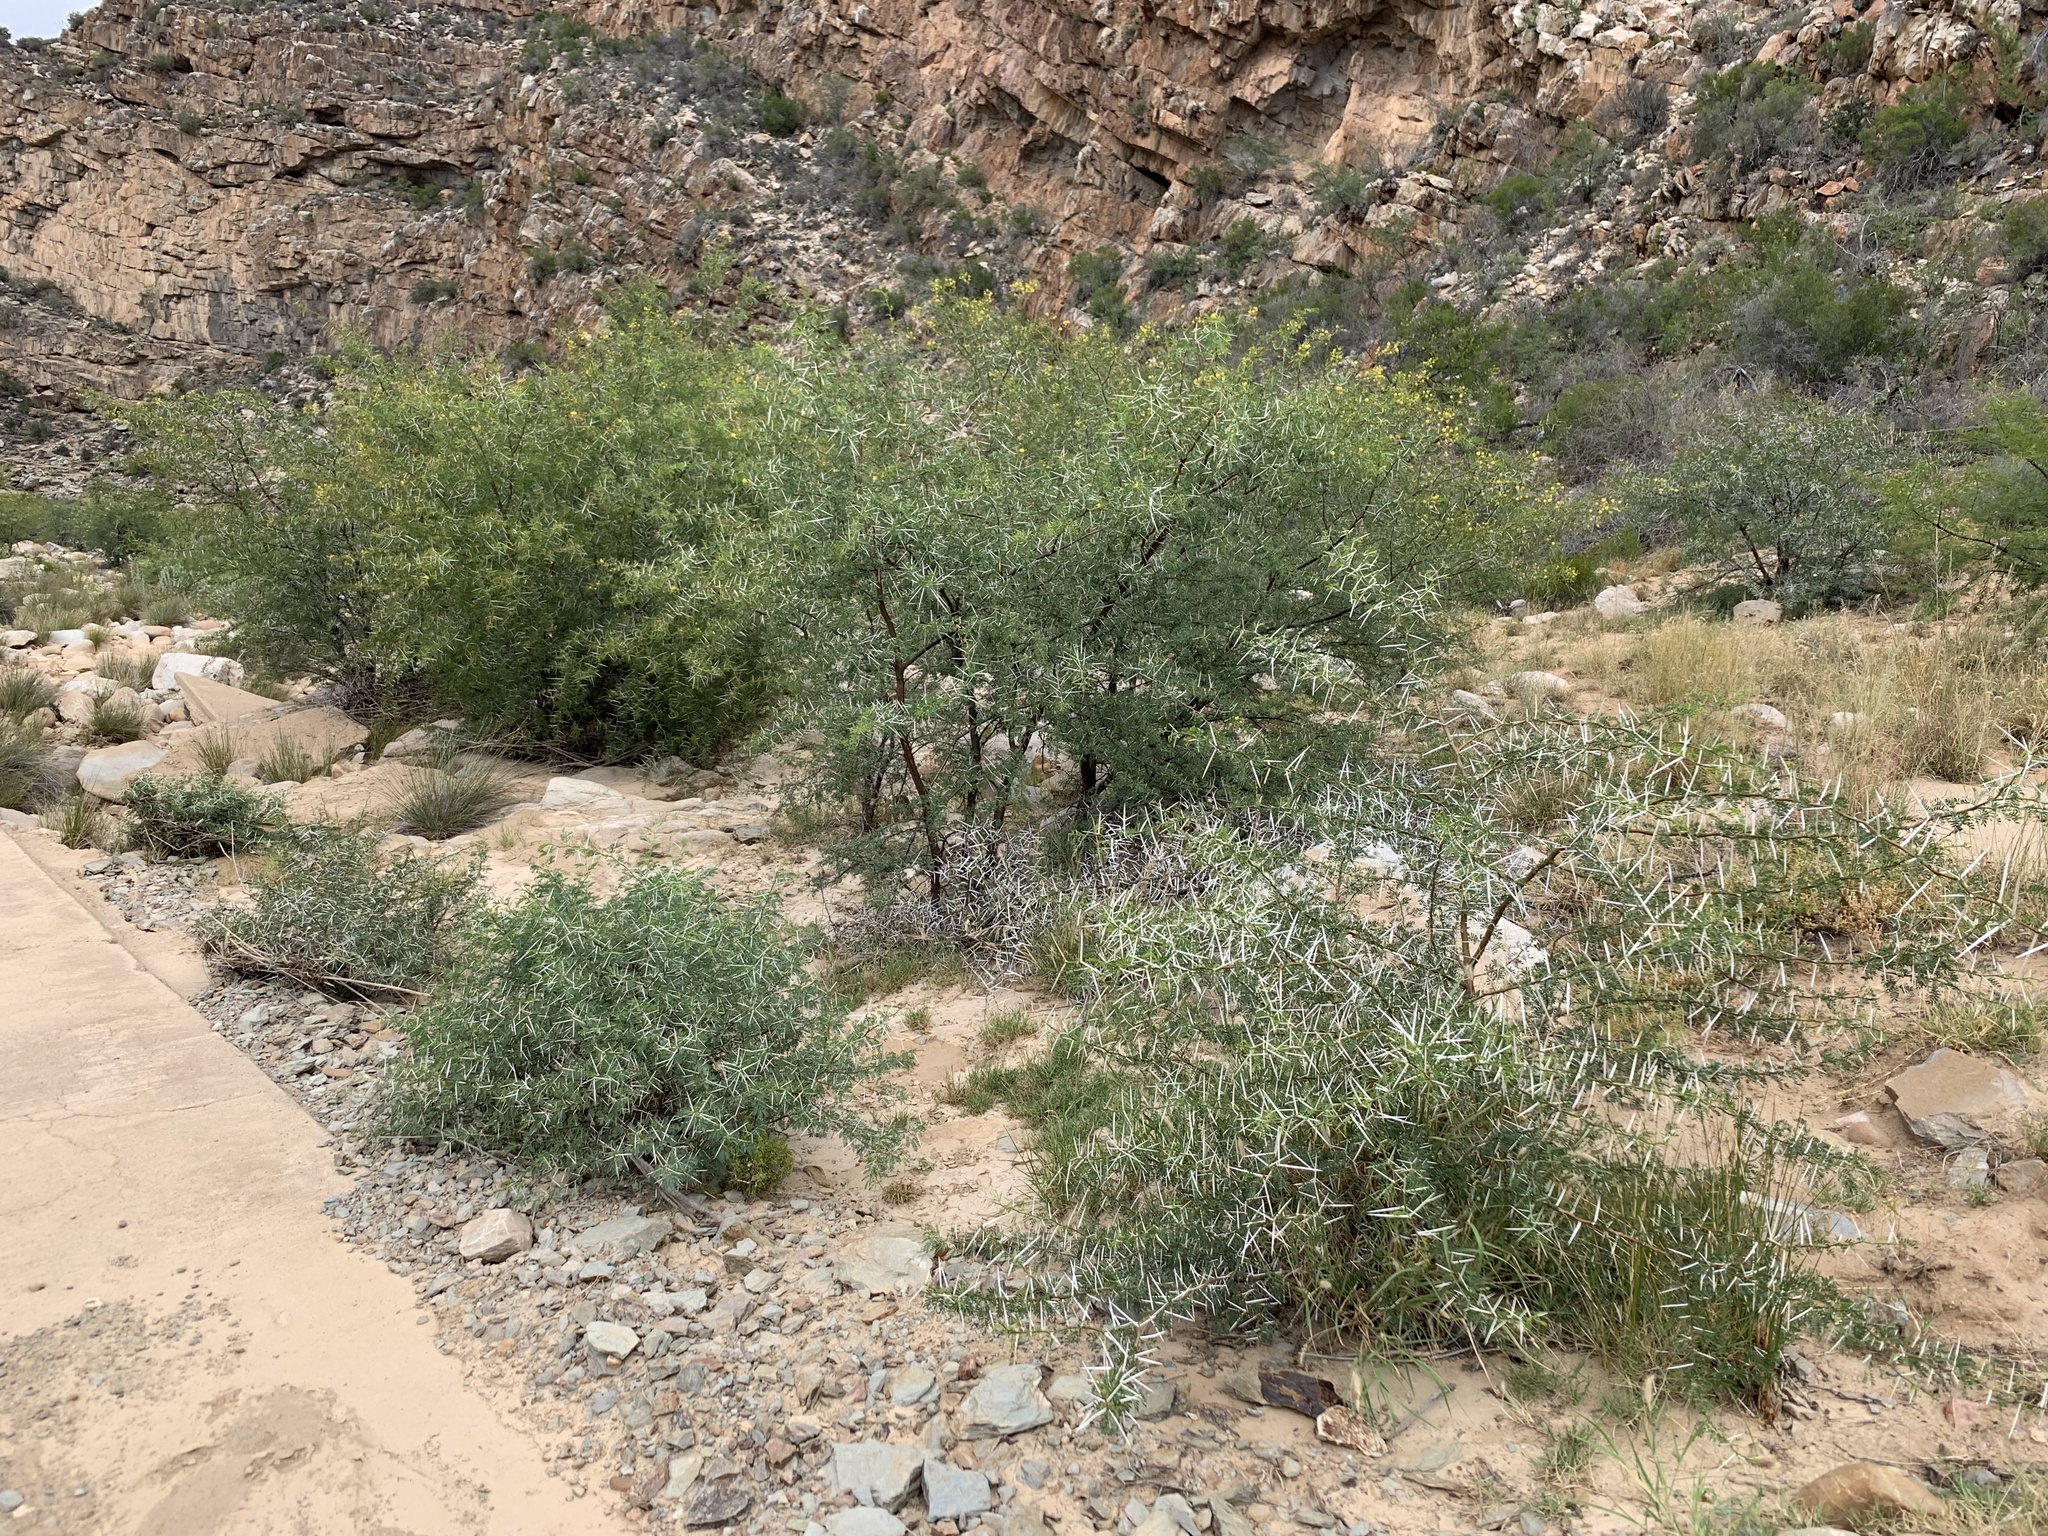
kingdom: Plantae
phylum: Tracheophyta
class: Magnoliopsida
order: Fabales
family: Fabaceae
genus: Vachellia
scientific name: Vachellia karroo
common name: Sweet thorn
